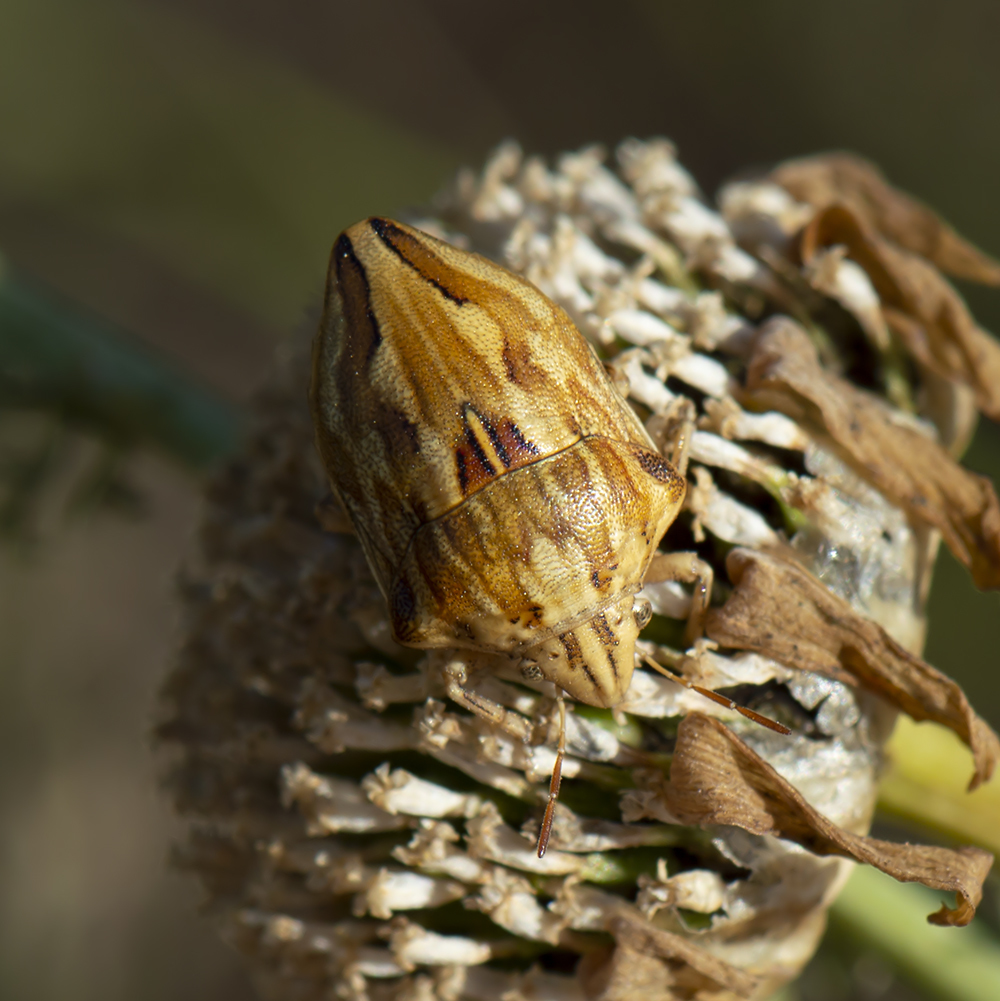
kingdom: Animalia
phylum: Arthropoda
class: Insecta
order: Hemiptera
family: Scutelleridae
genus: Odontotarsus
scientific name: Odontotarsus robustus
